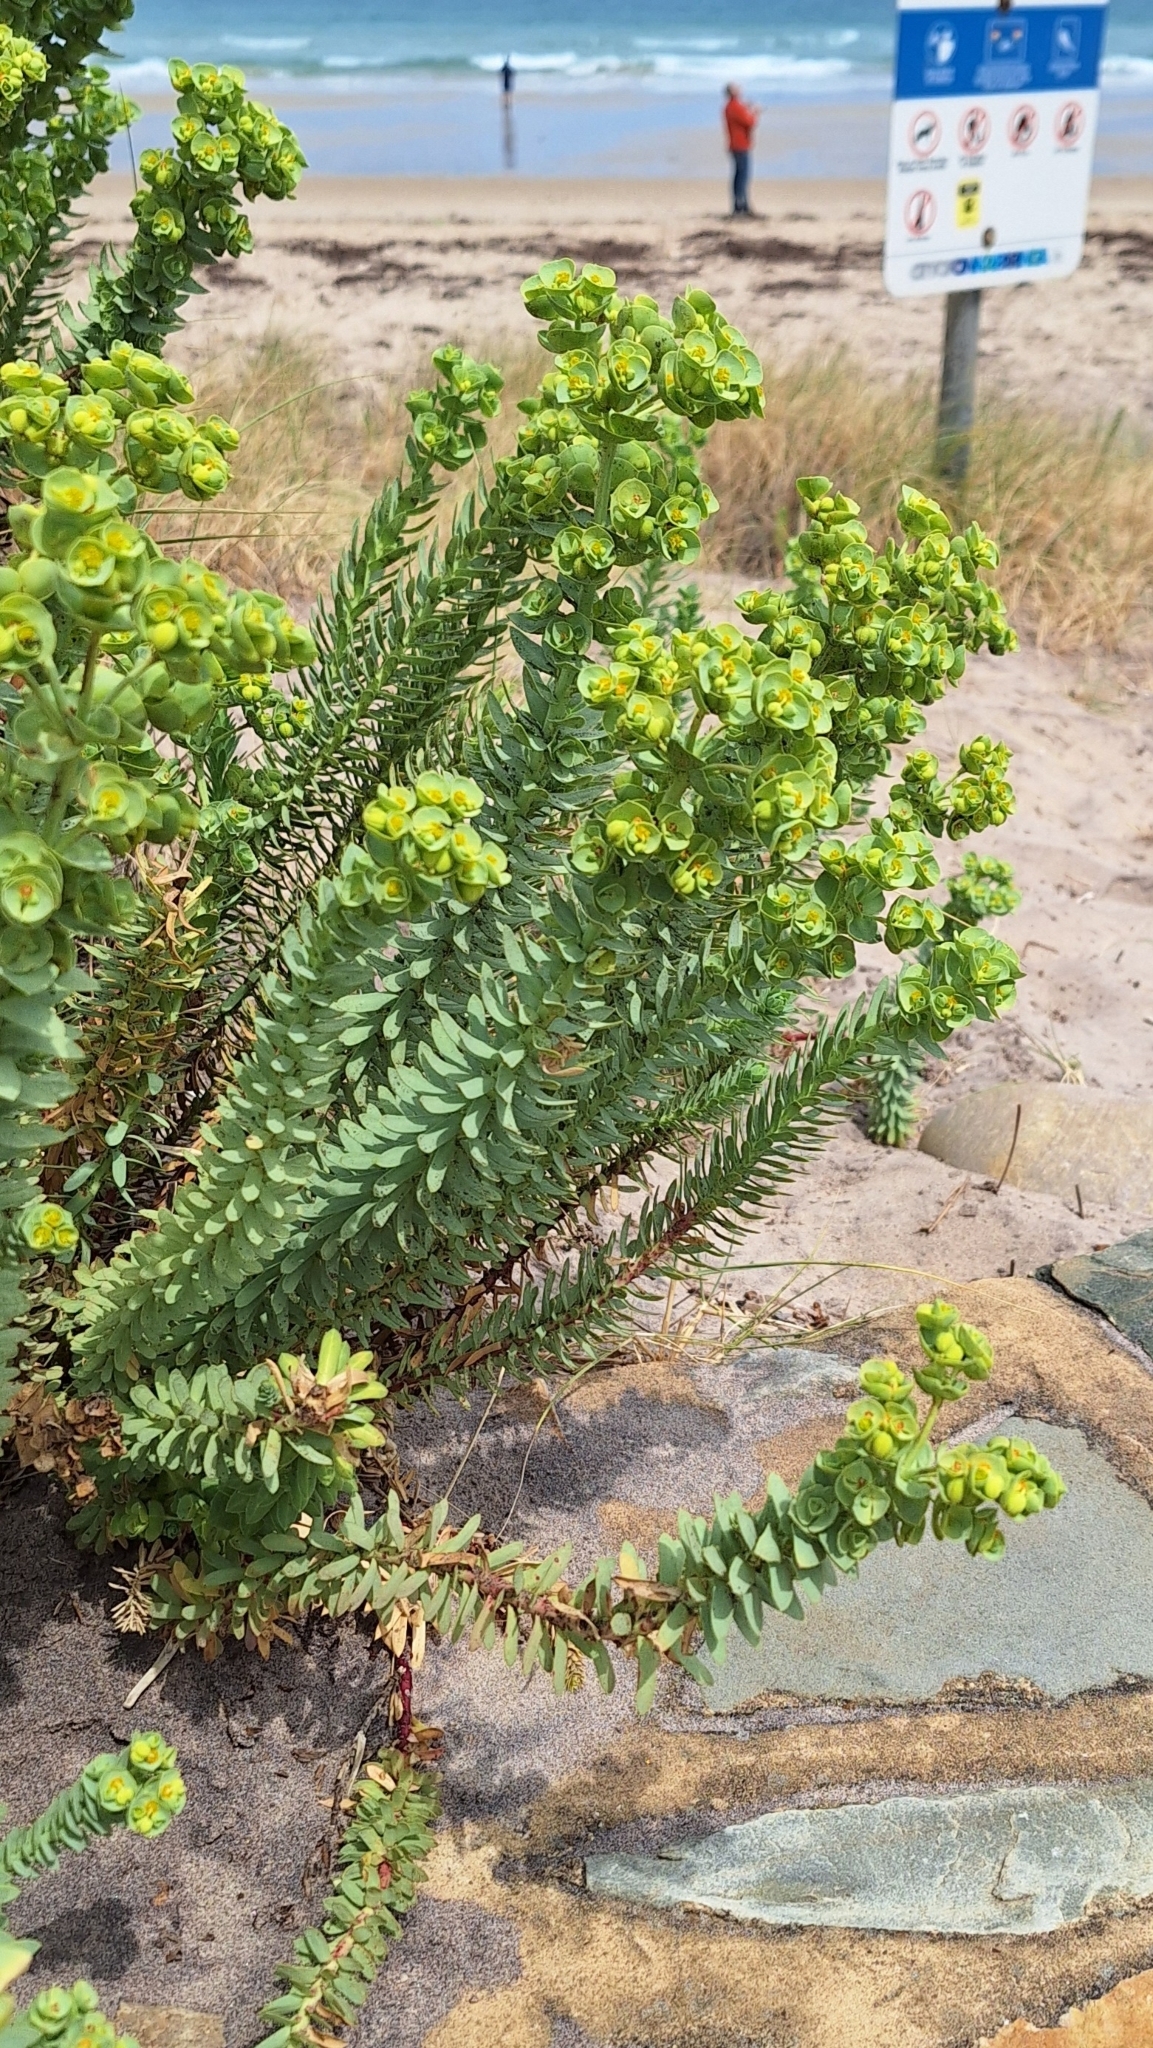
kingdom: Plantae
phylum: Tracheophyta
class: Magnoliopsida
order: Malpighiales
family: Euphorbiaceae
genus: Euphorbia
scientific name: Euphorbia paralias
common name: Sea spurge
